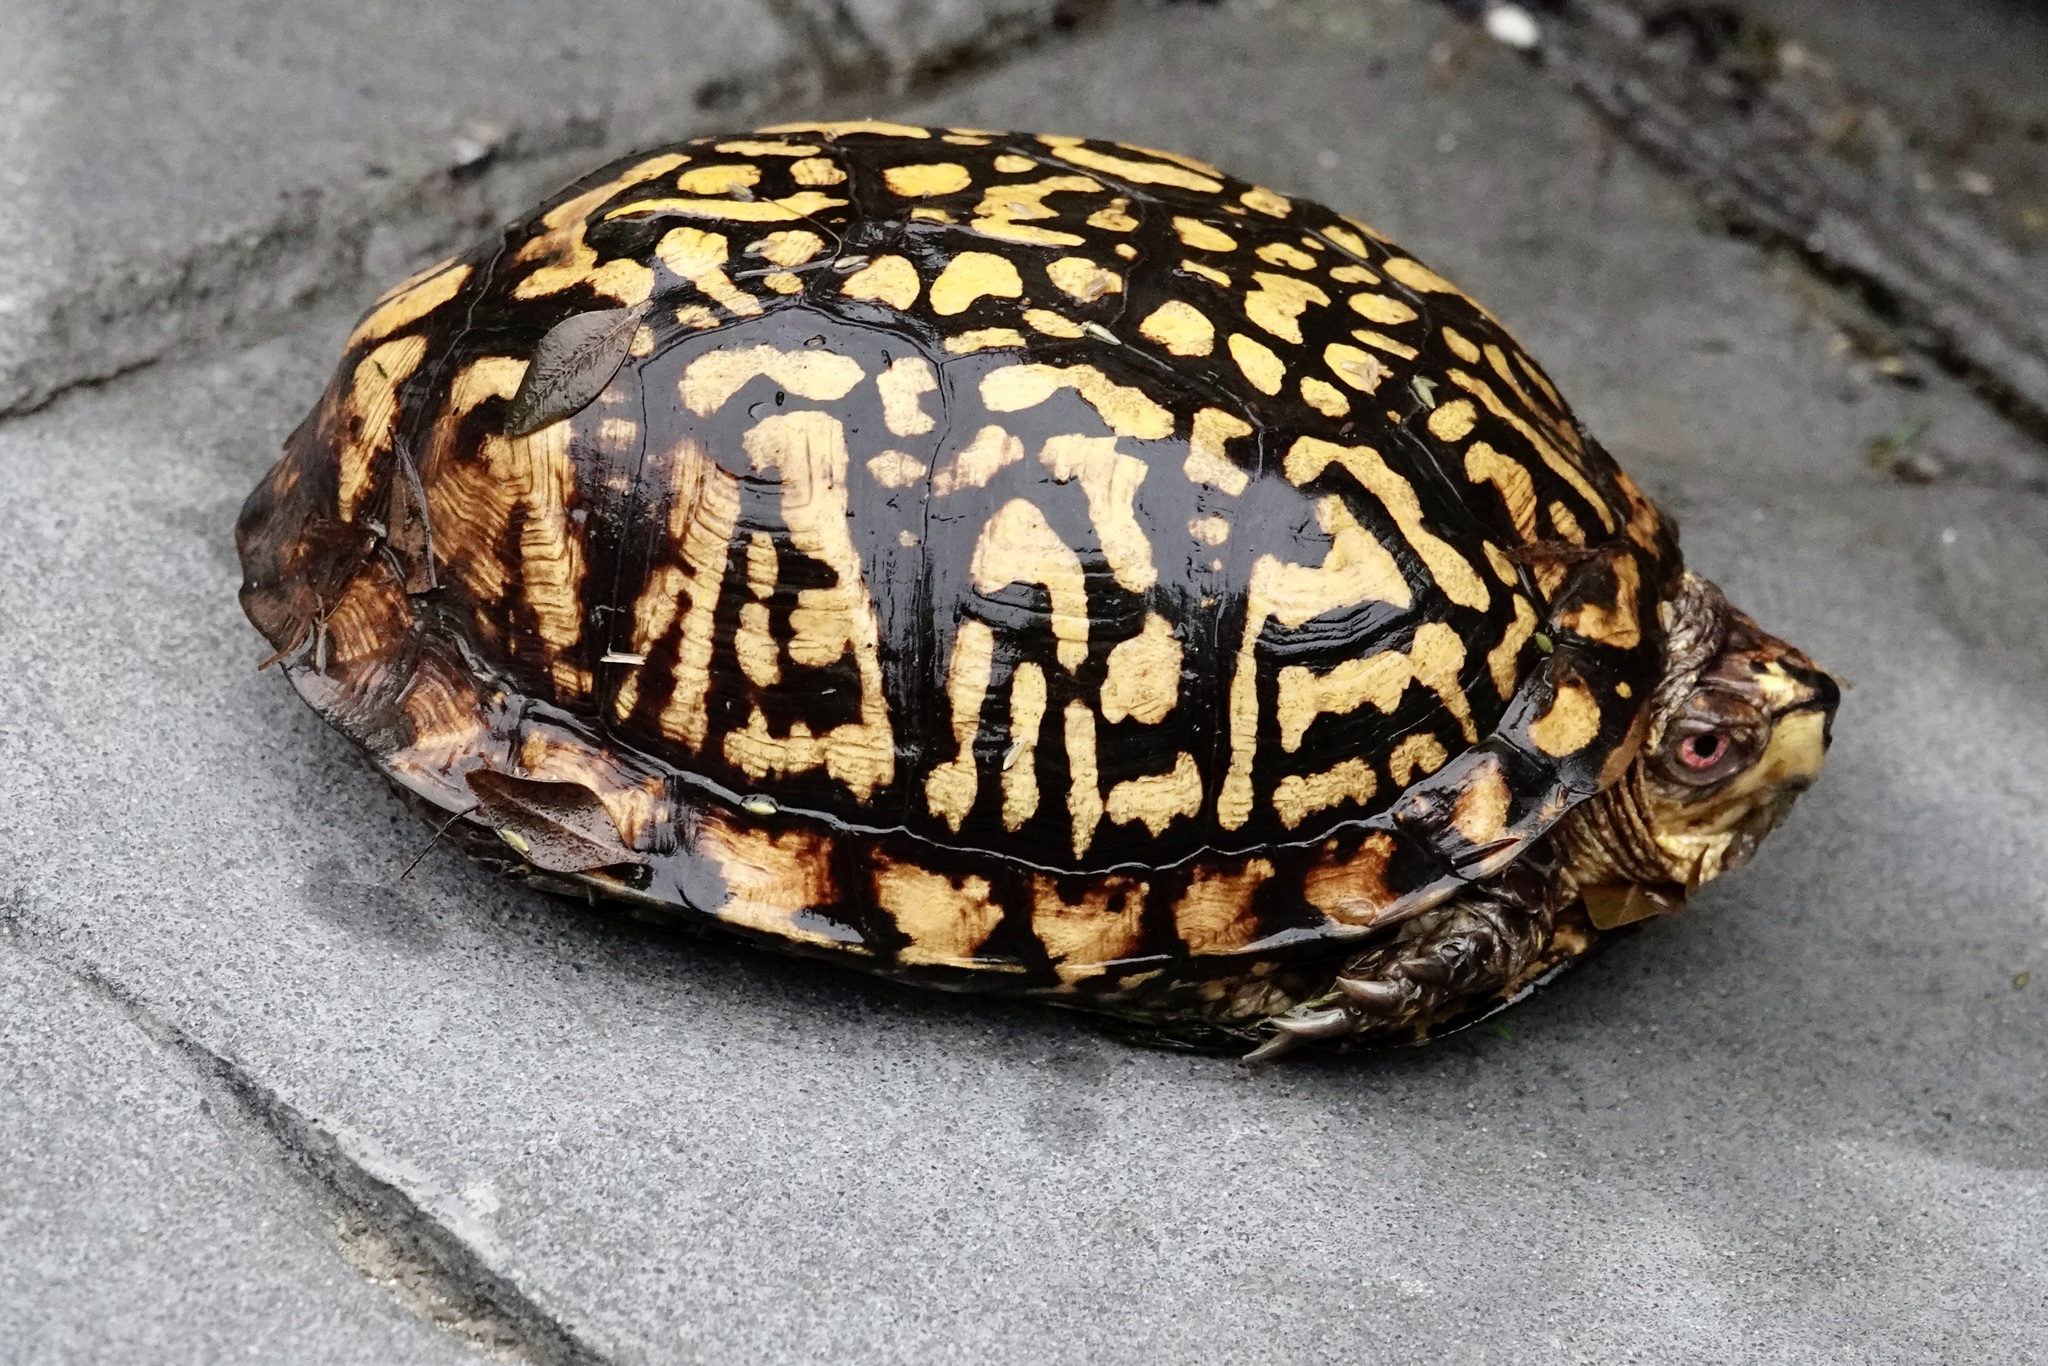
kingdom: Animalia
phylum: Chordata
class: Testudines
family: Emydidae
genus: Terrapene
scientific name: Terrapene carolina
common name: Common box turtle
